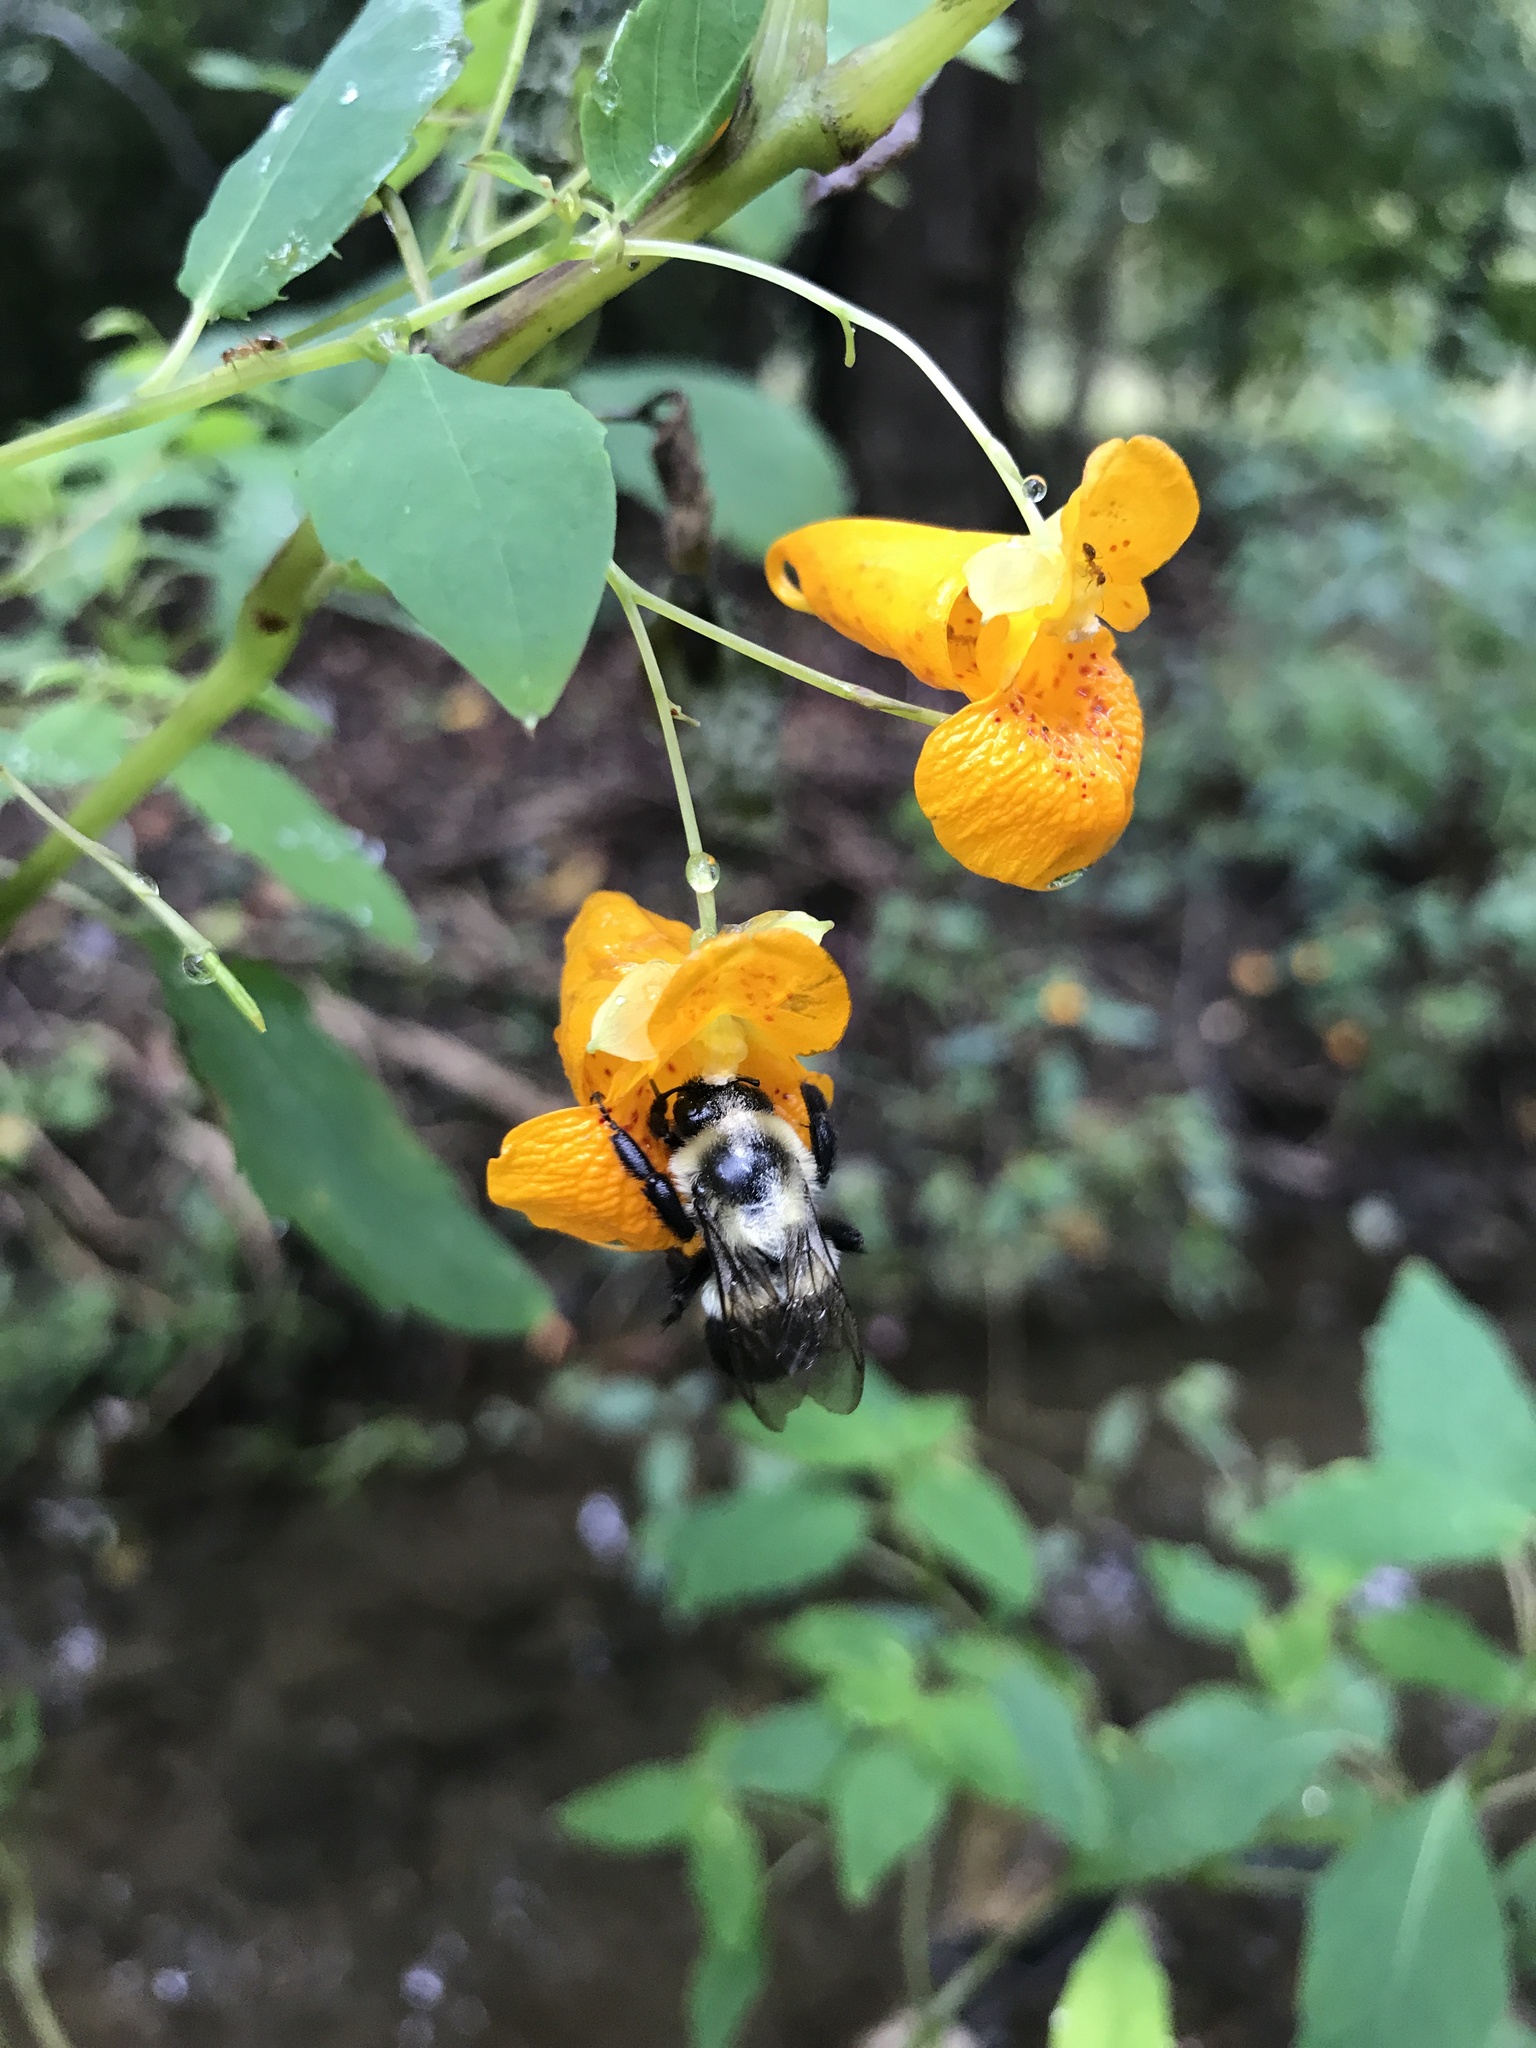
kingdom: Animalia
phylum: Arthropoda
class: Insecta
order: Hymenoptera
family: Apidae
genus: Bombus
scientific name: Bombus impatiens
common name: Common eastern bumble bee
